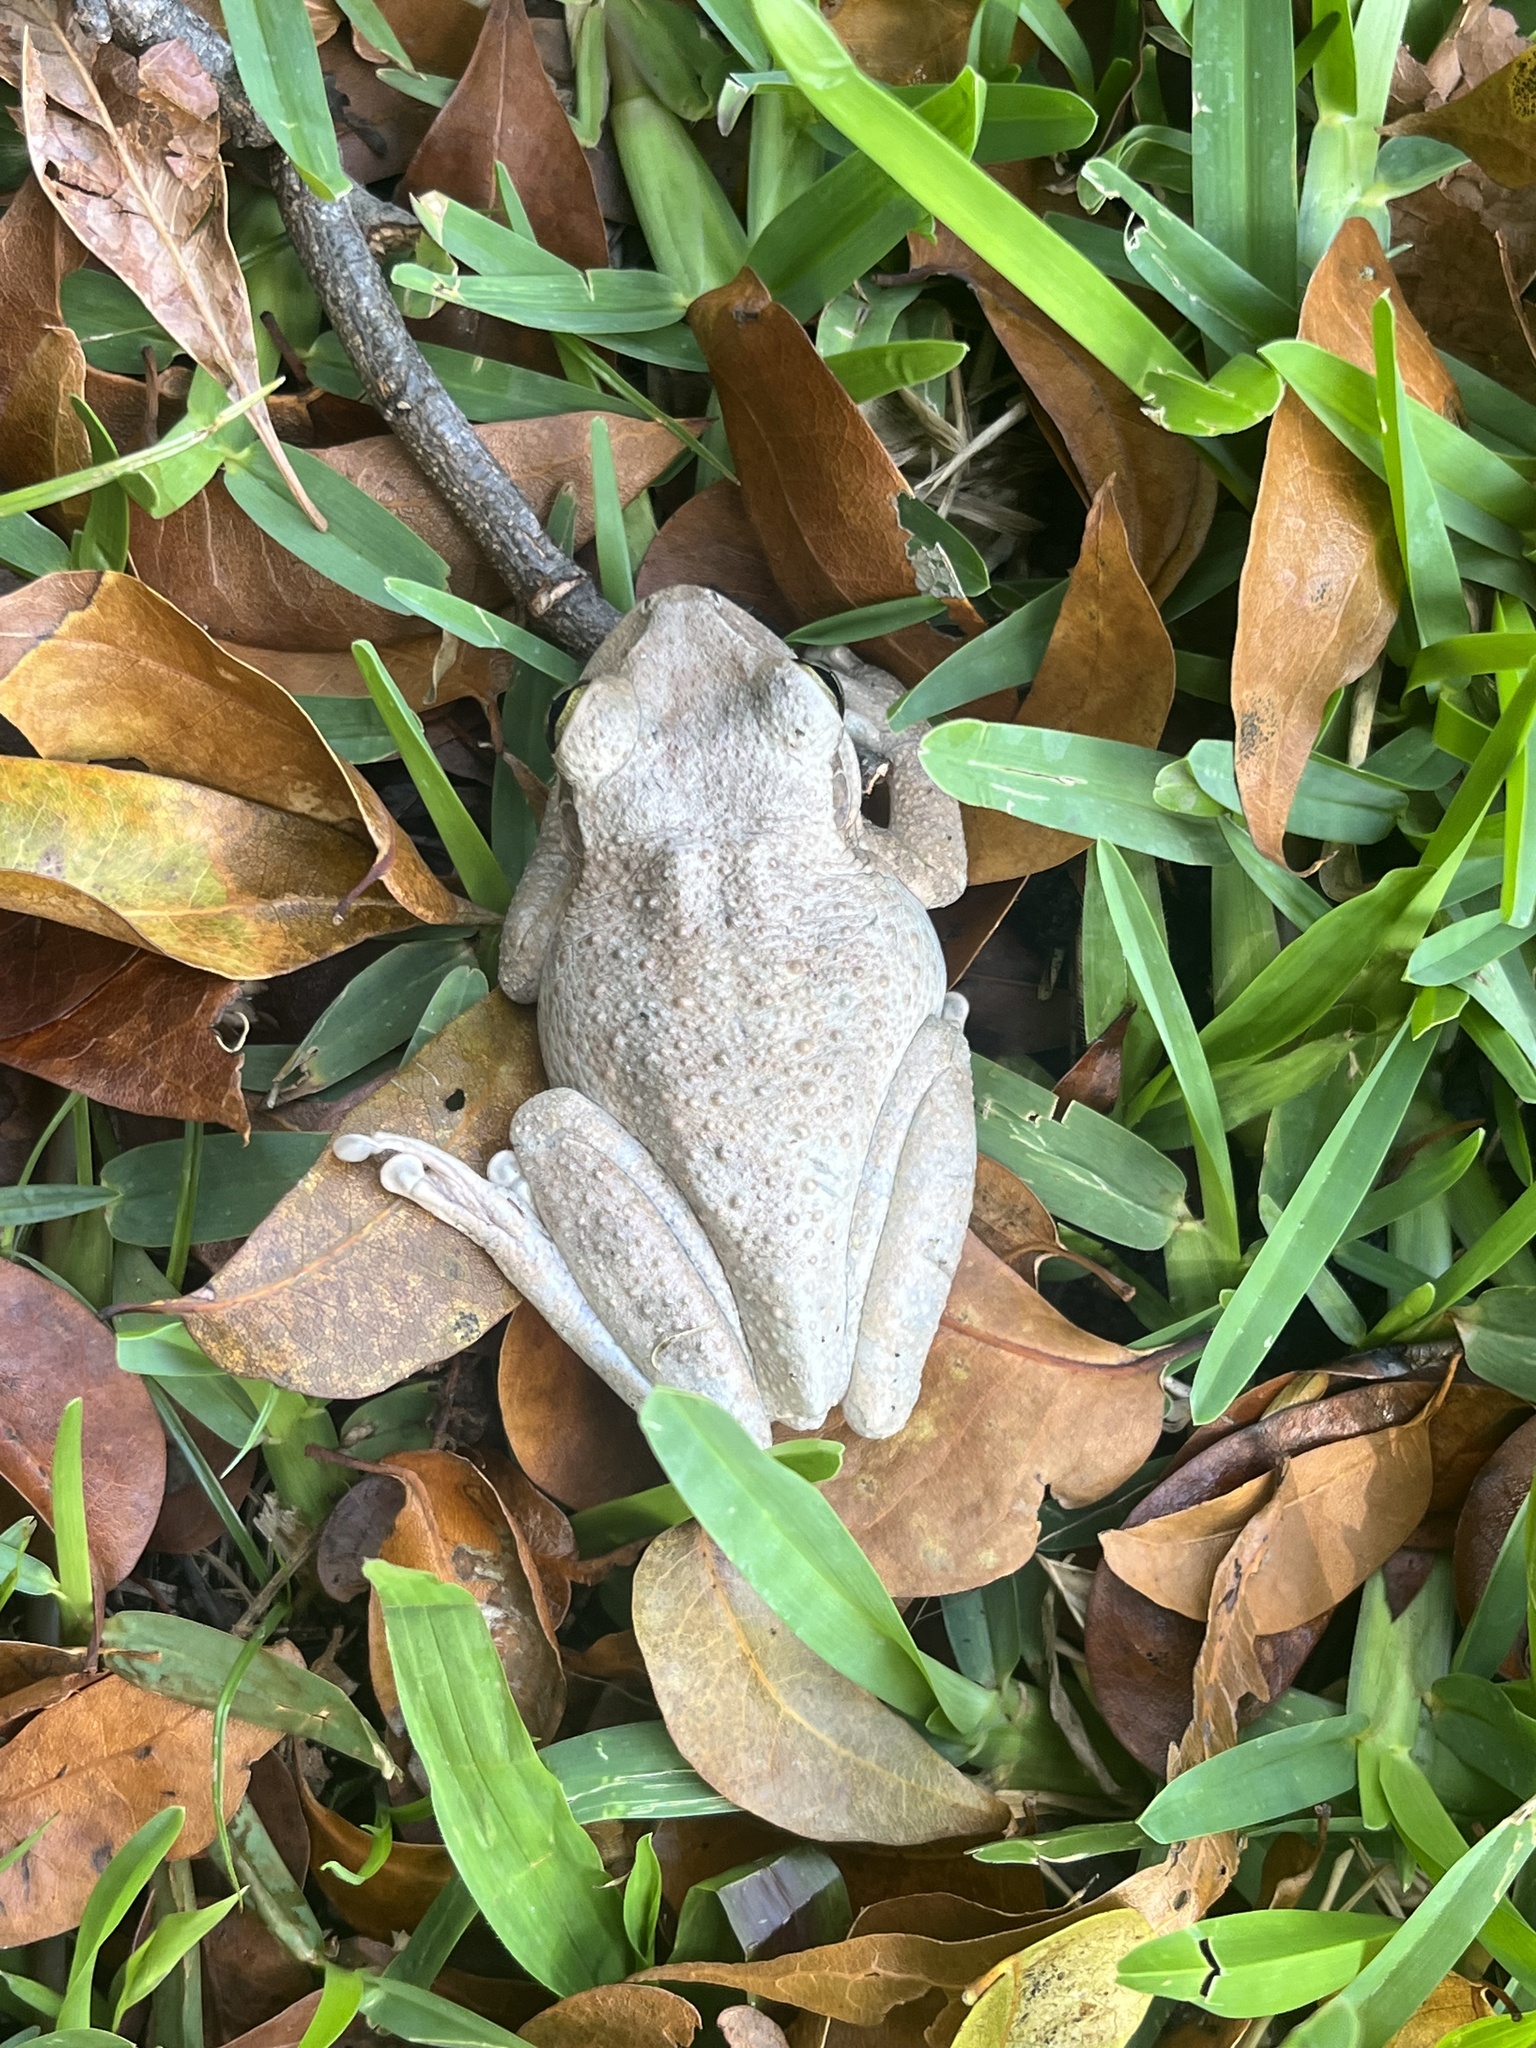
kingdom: Animalia
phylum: Chordata
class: Amphibia
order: Anura
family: Hylidae
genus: Osteopilus
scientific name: Osteopilus septentrionalis
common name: Cuban treefrog
